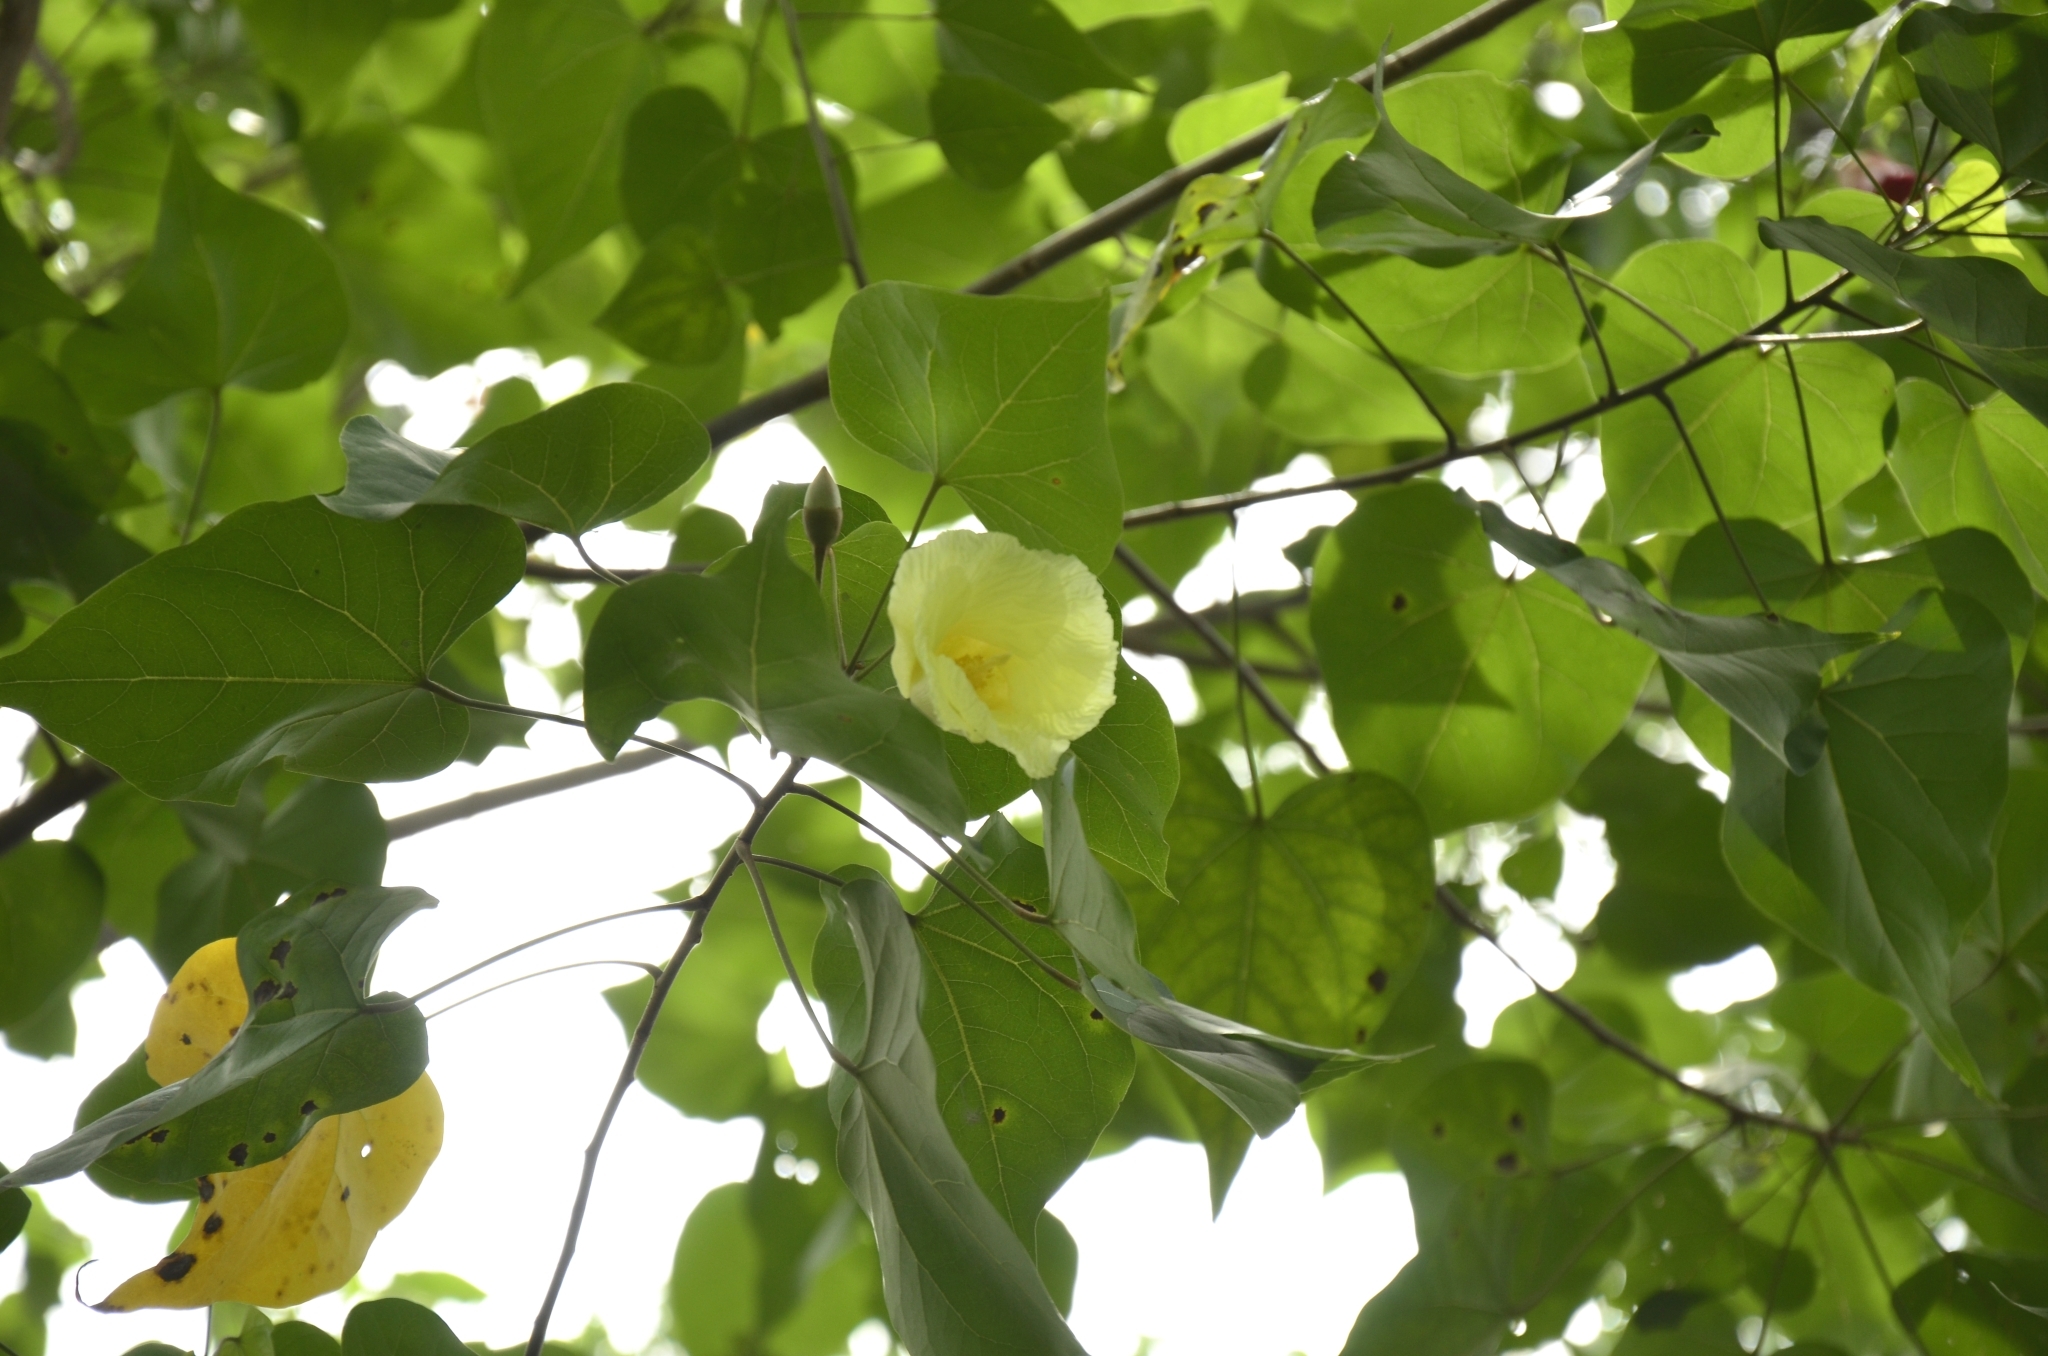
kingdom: Plantae
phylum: Tracheophyta
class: Magnoliopsida
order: Malvales
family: Malvaceae
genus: Thespesia
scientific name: Thespesia populnea
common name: Seaside mahoe
